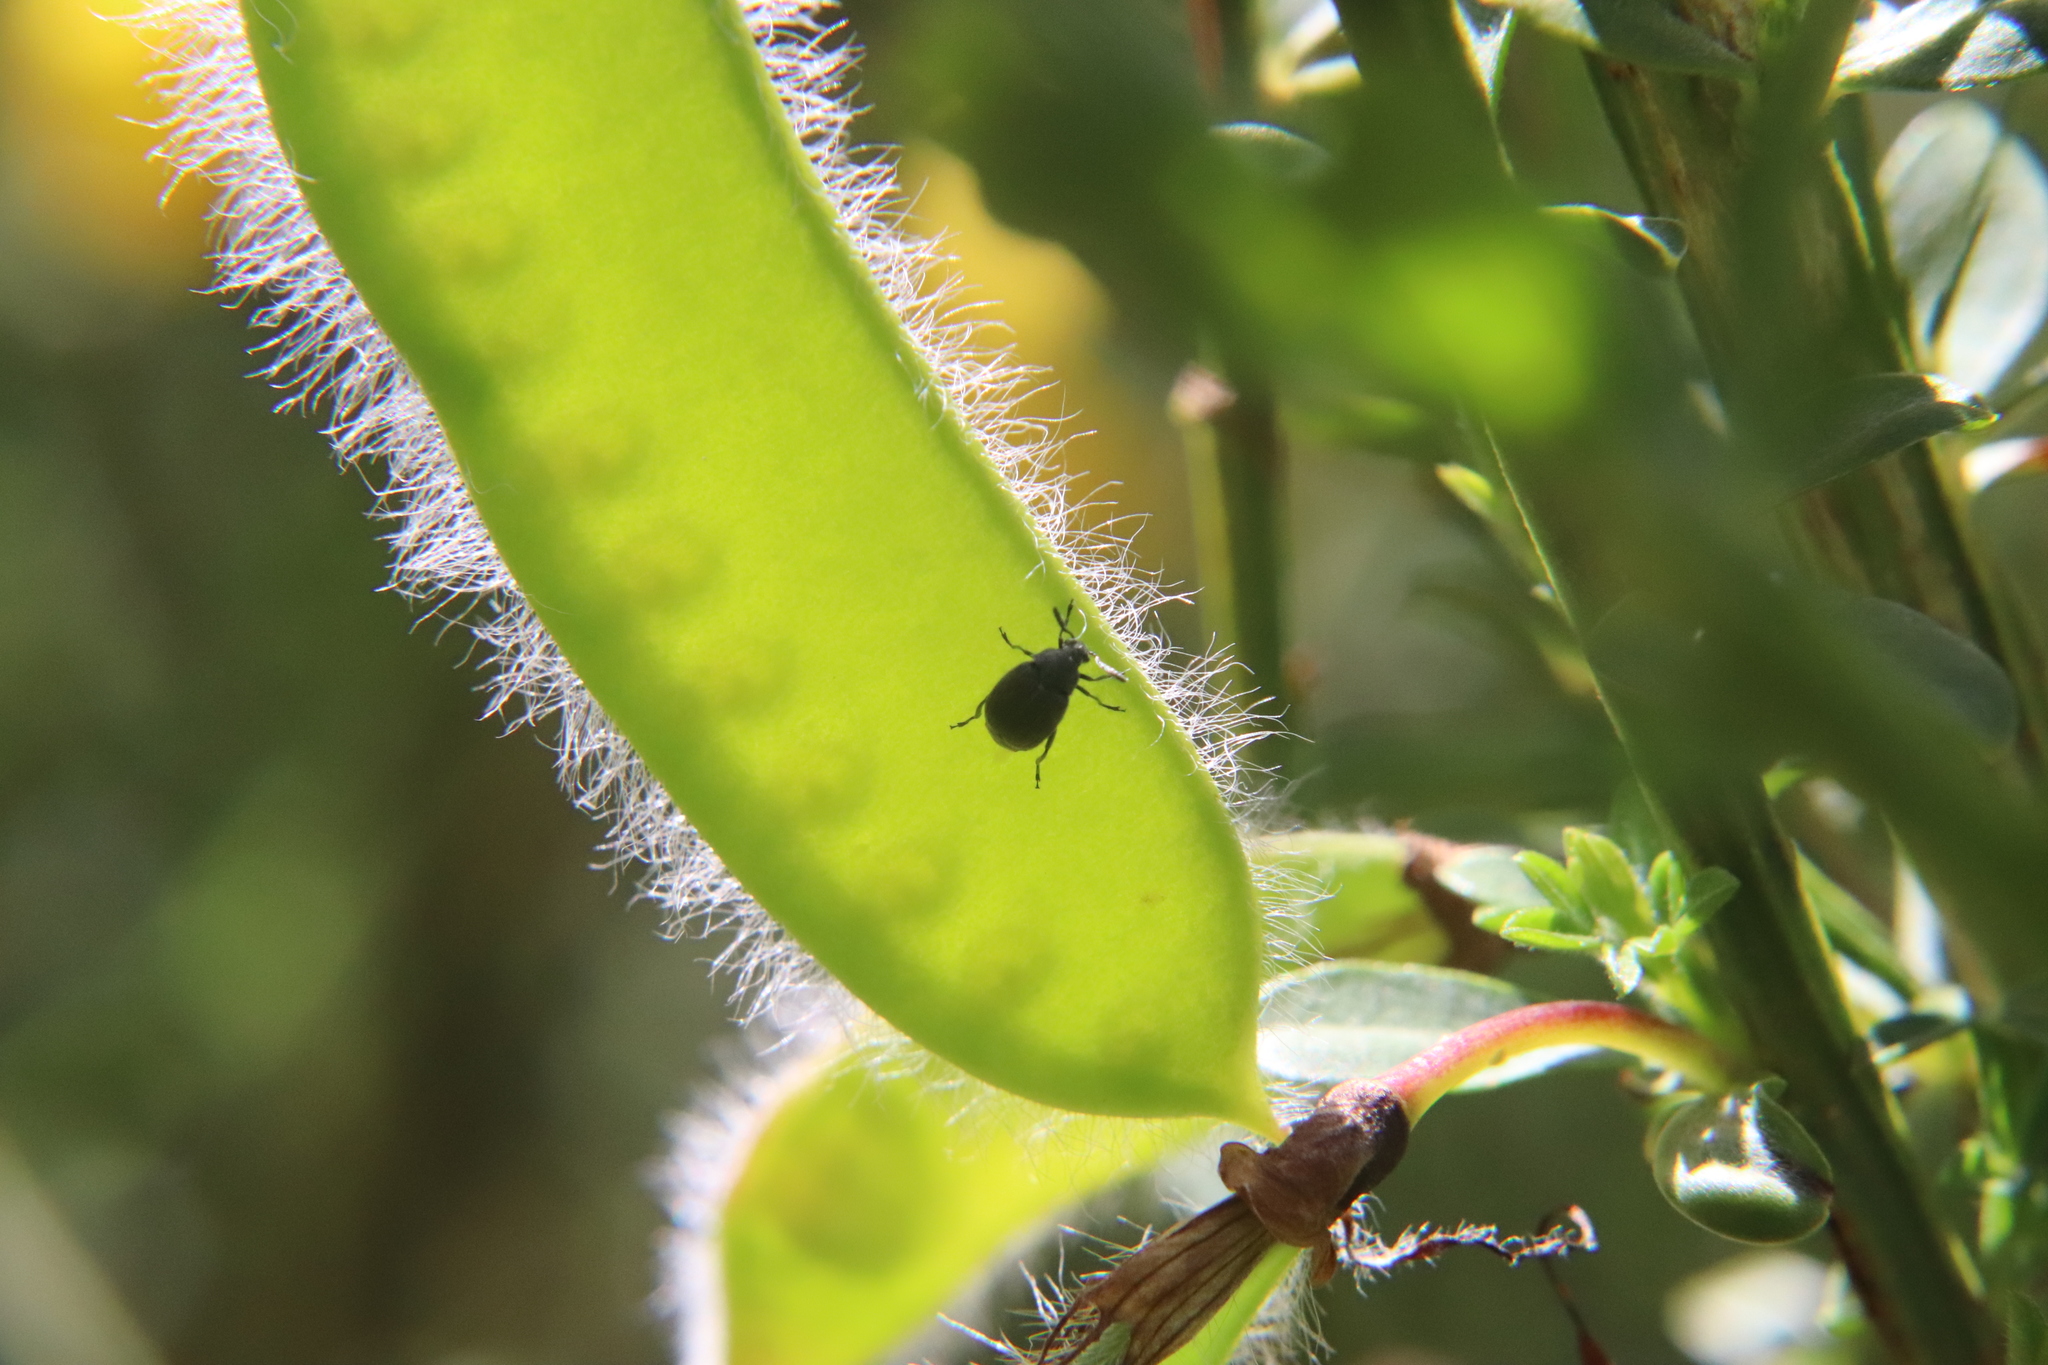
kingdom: Animalia
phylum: Arthropoda
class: Insecta
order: Coleoptera
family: Chrysomelidae
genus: Bruchidius
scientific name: Bruchidius villosus
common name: Scotch broom bruchid
